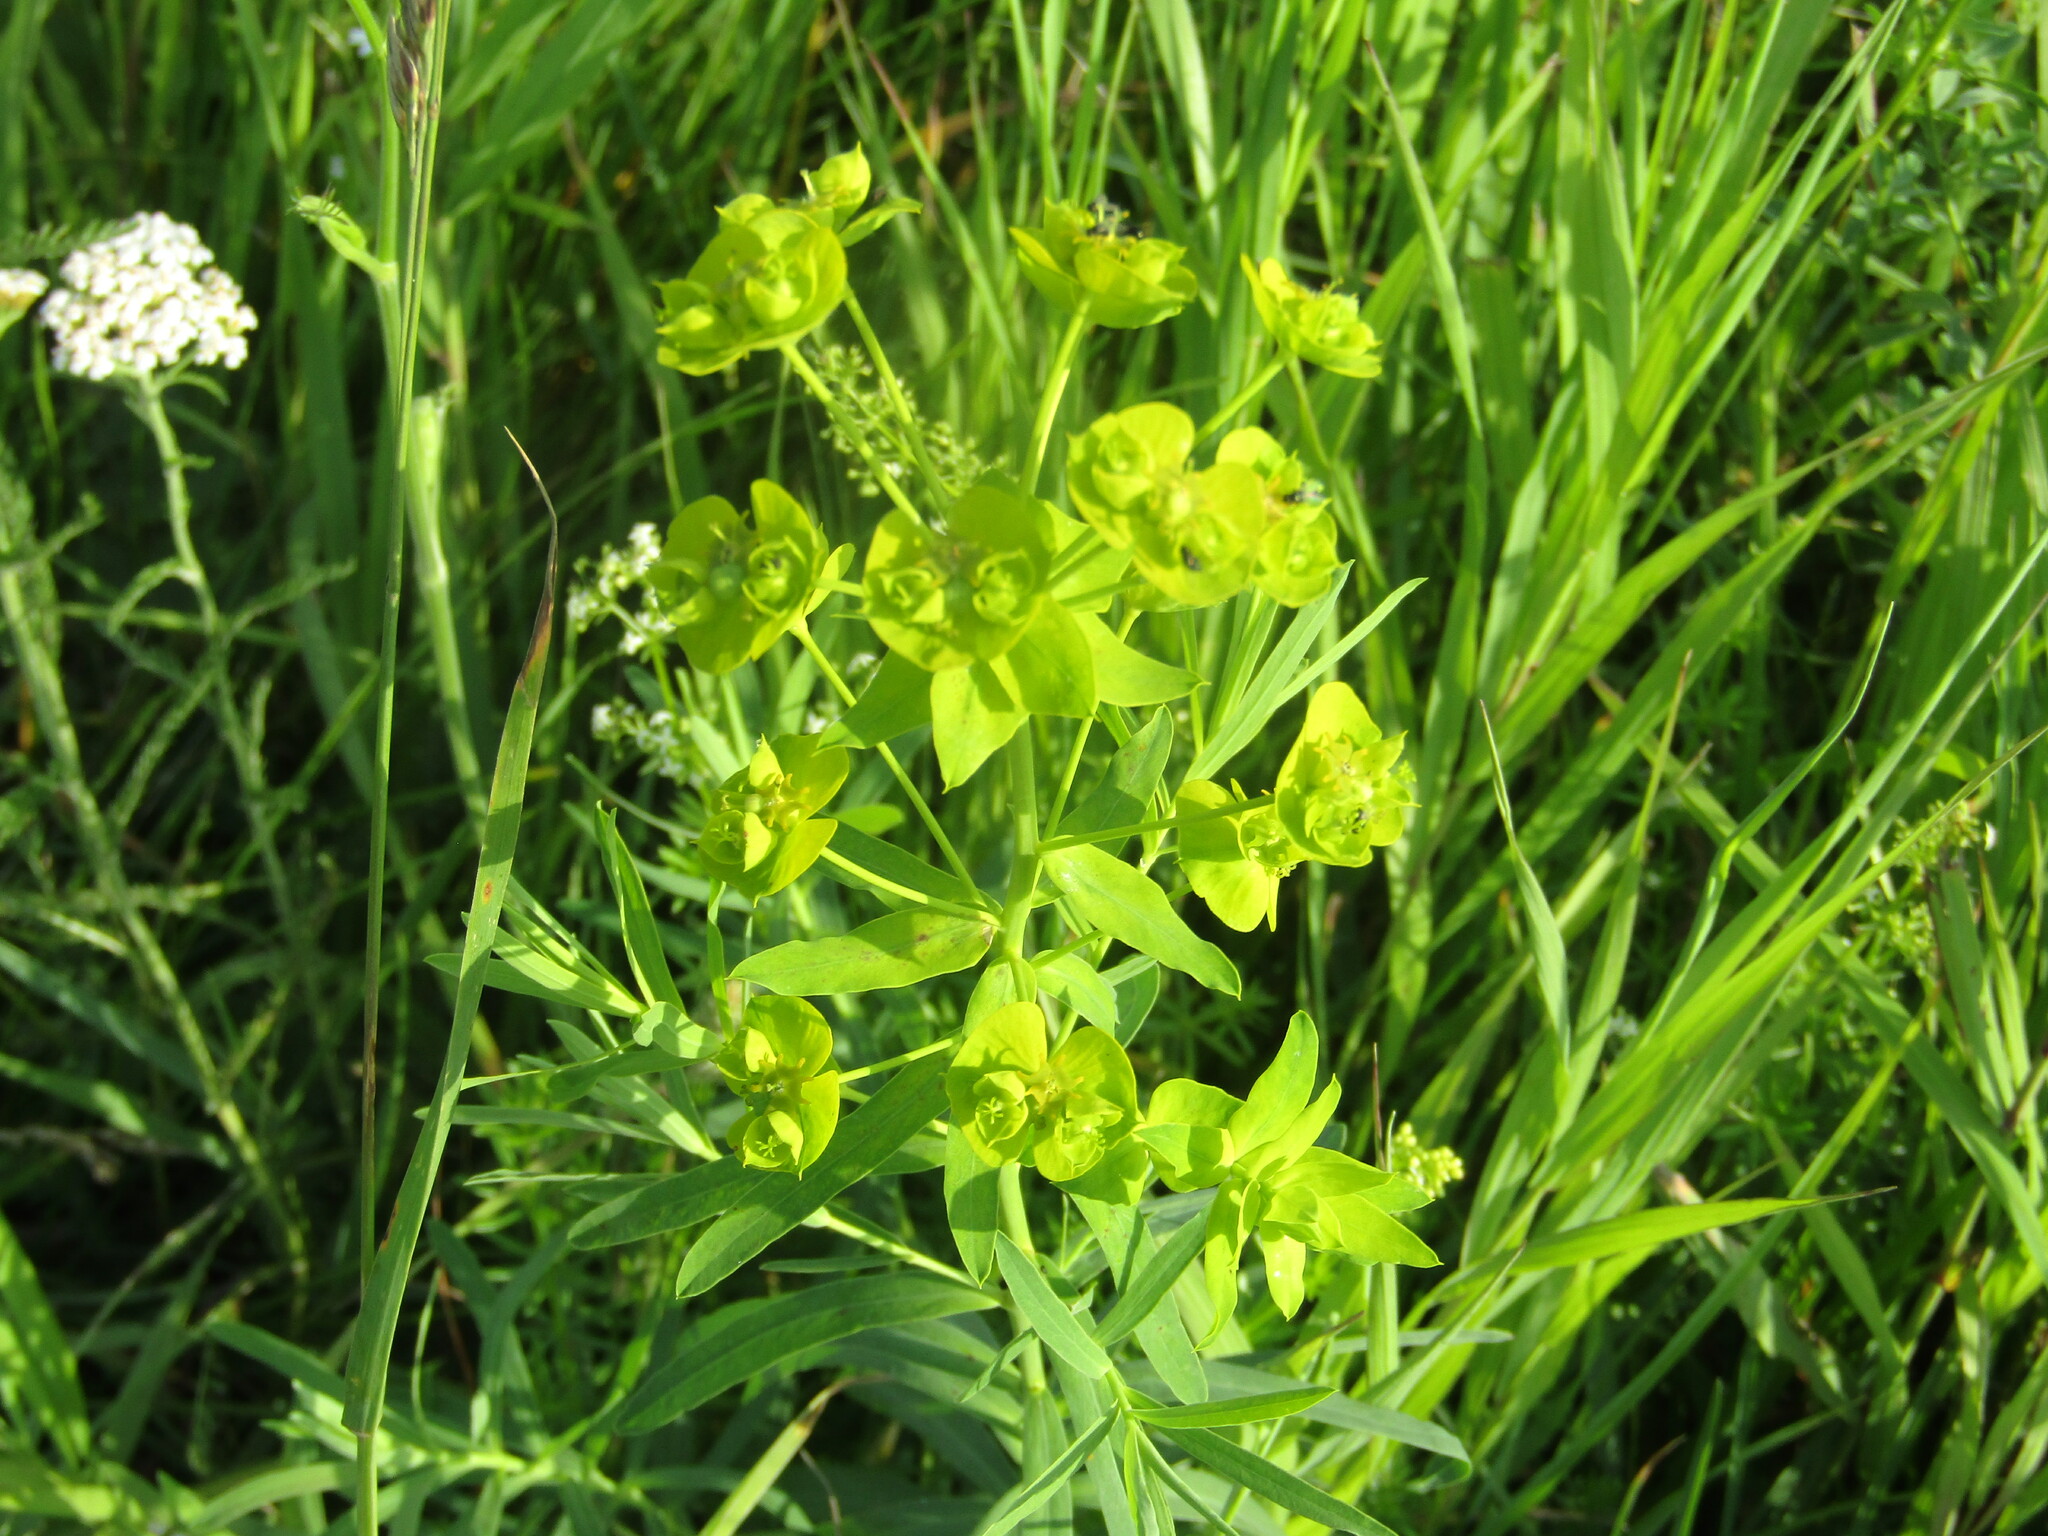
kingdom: Plantae
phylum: Tracheophyta
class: Magnoliopsida
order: Malpighiales
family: Euphorbiaceae
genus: Euphorbia
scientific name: Euphorbia virgata
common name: Leafy spurge
